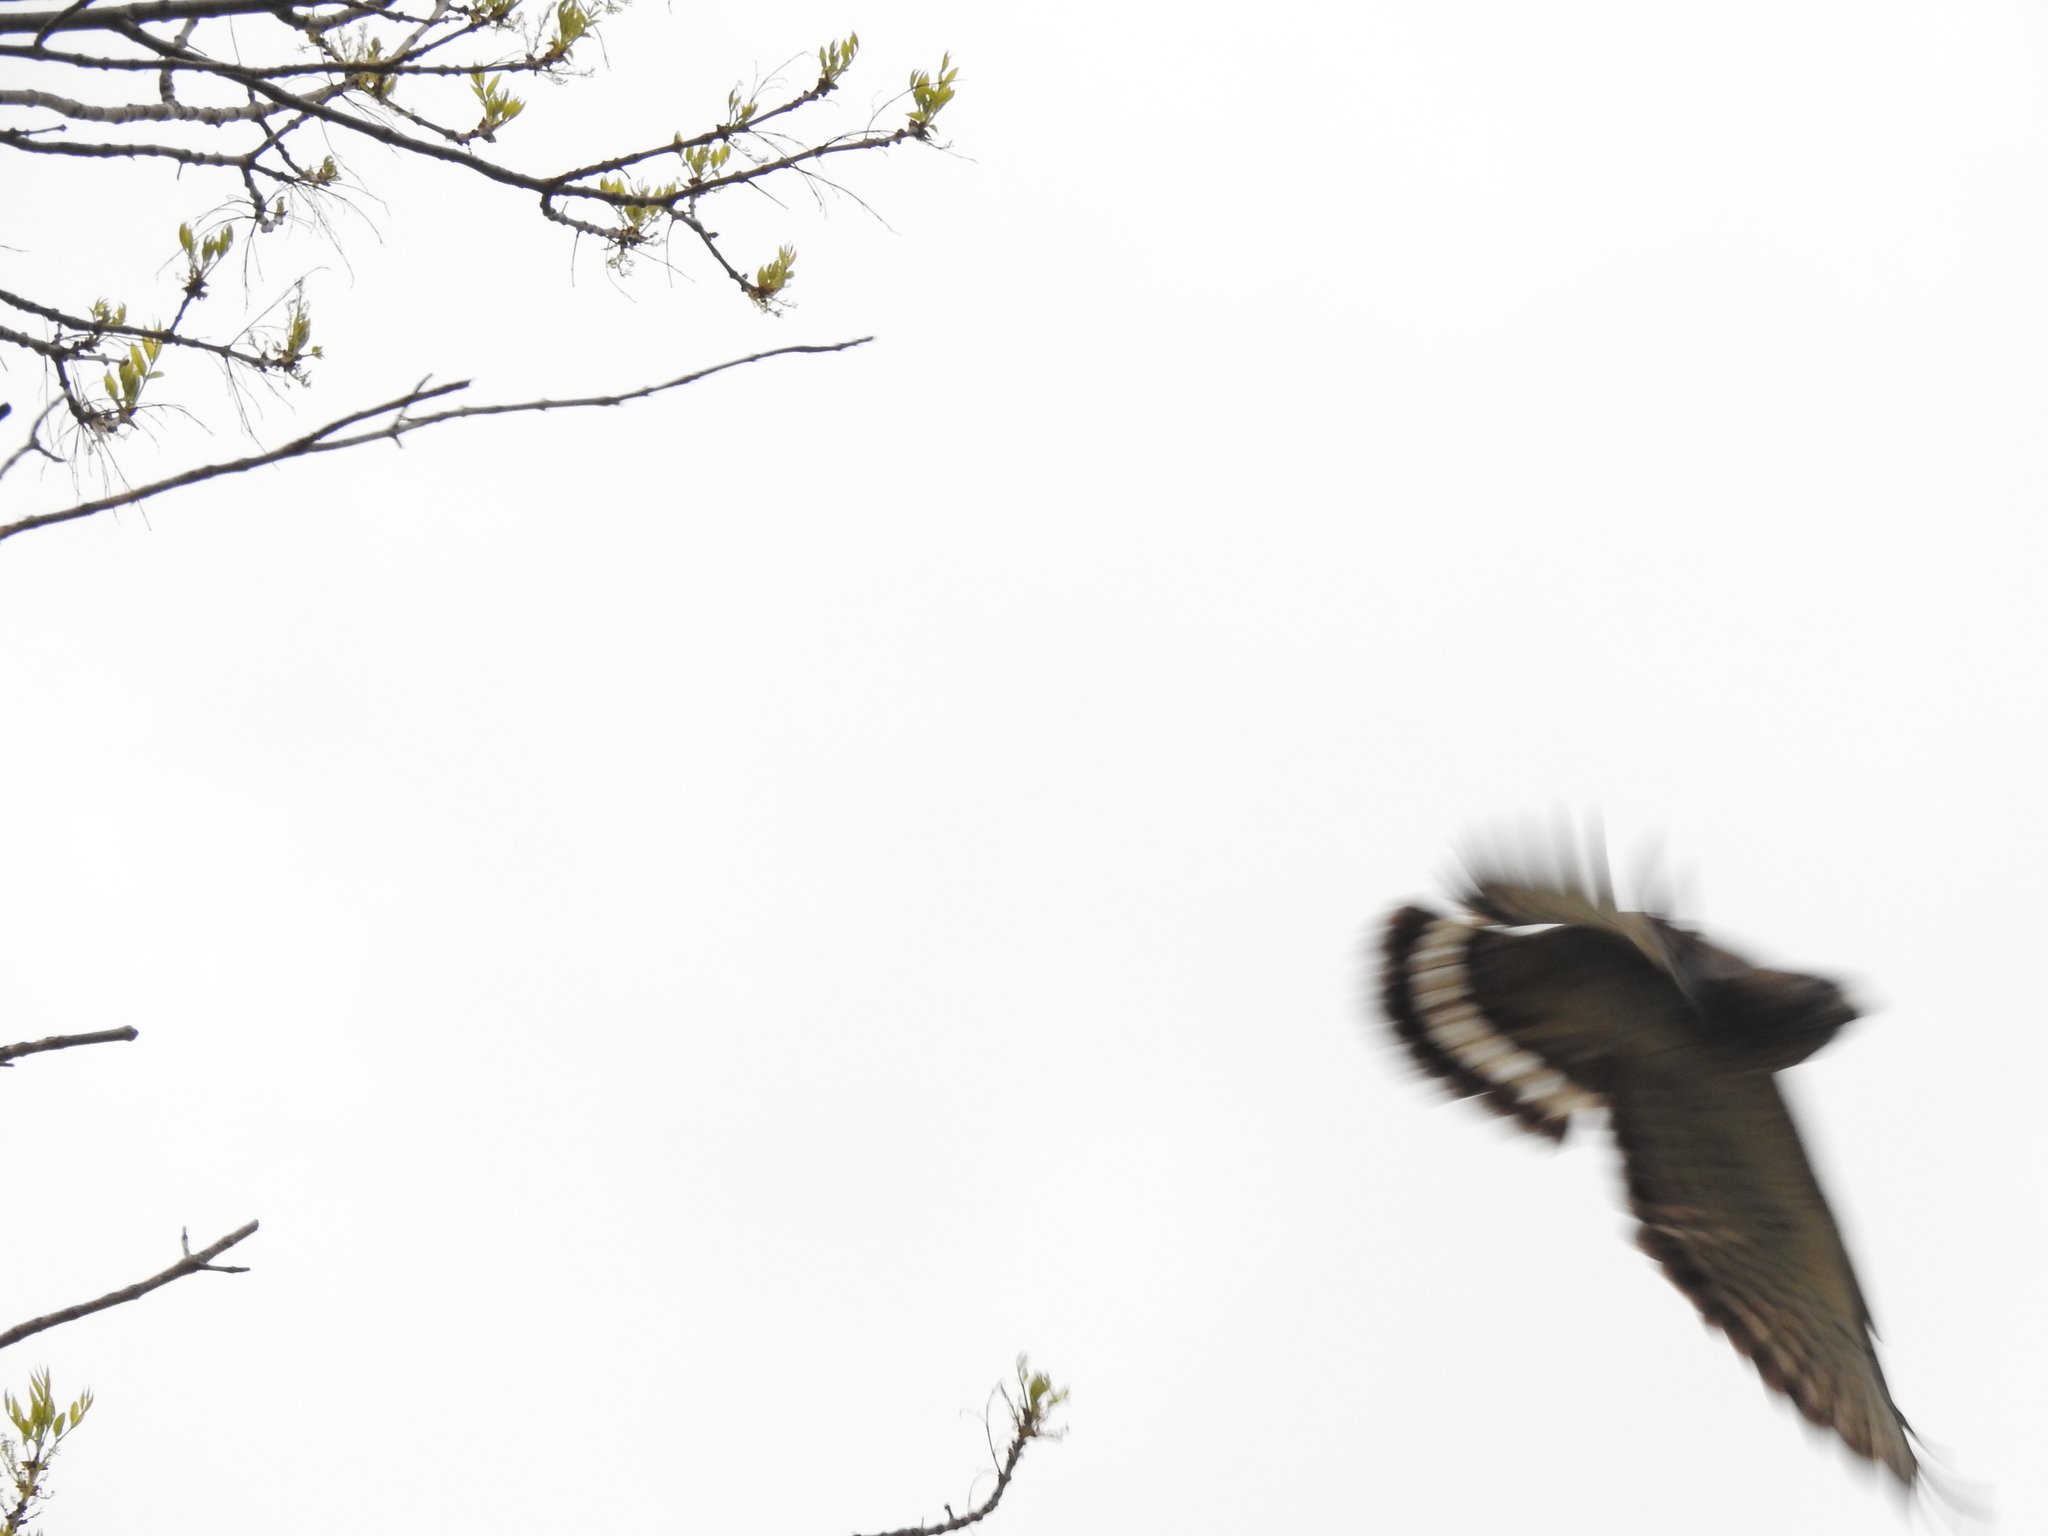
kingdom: Animalia
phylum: Chordata
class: Aves
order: Accipitriformes
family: Accipitridae
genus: Buteo
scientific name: Buteo platypterus
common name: Broad-winged hawk
